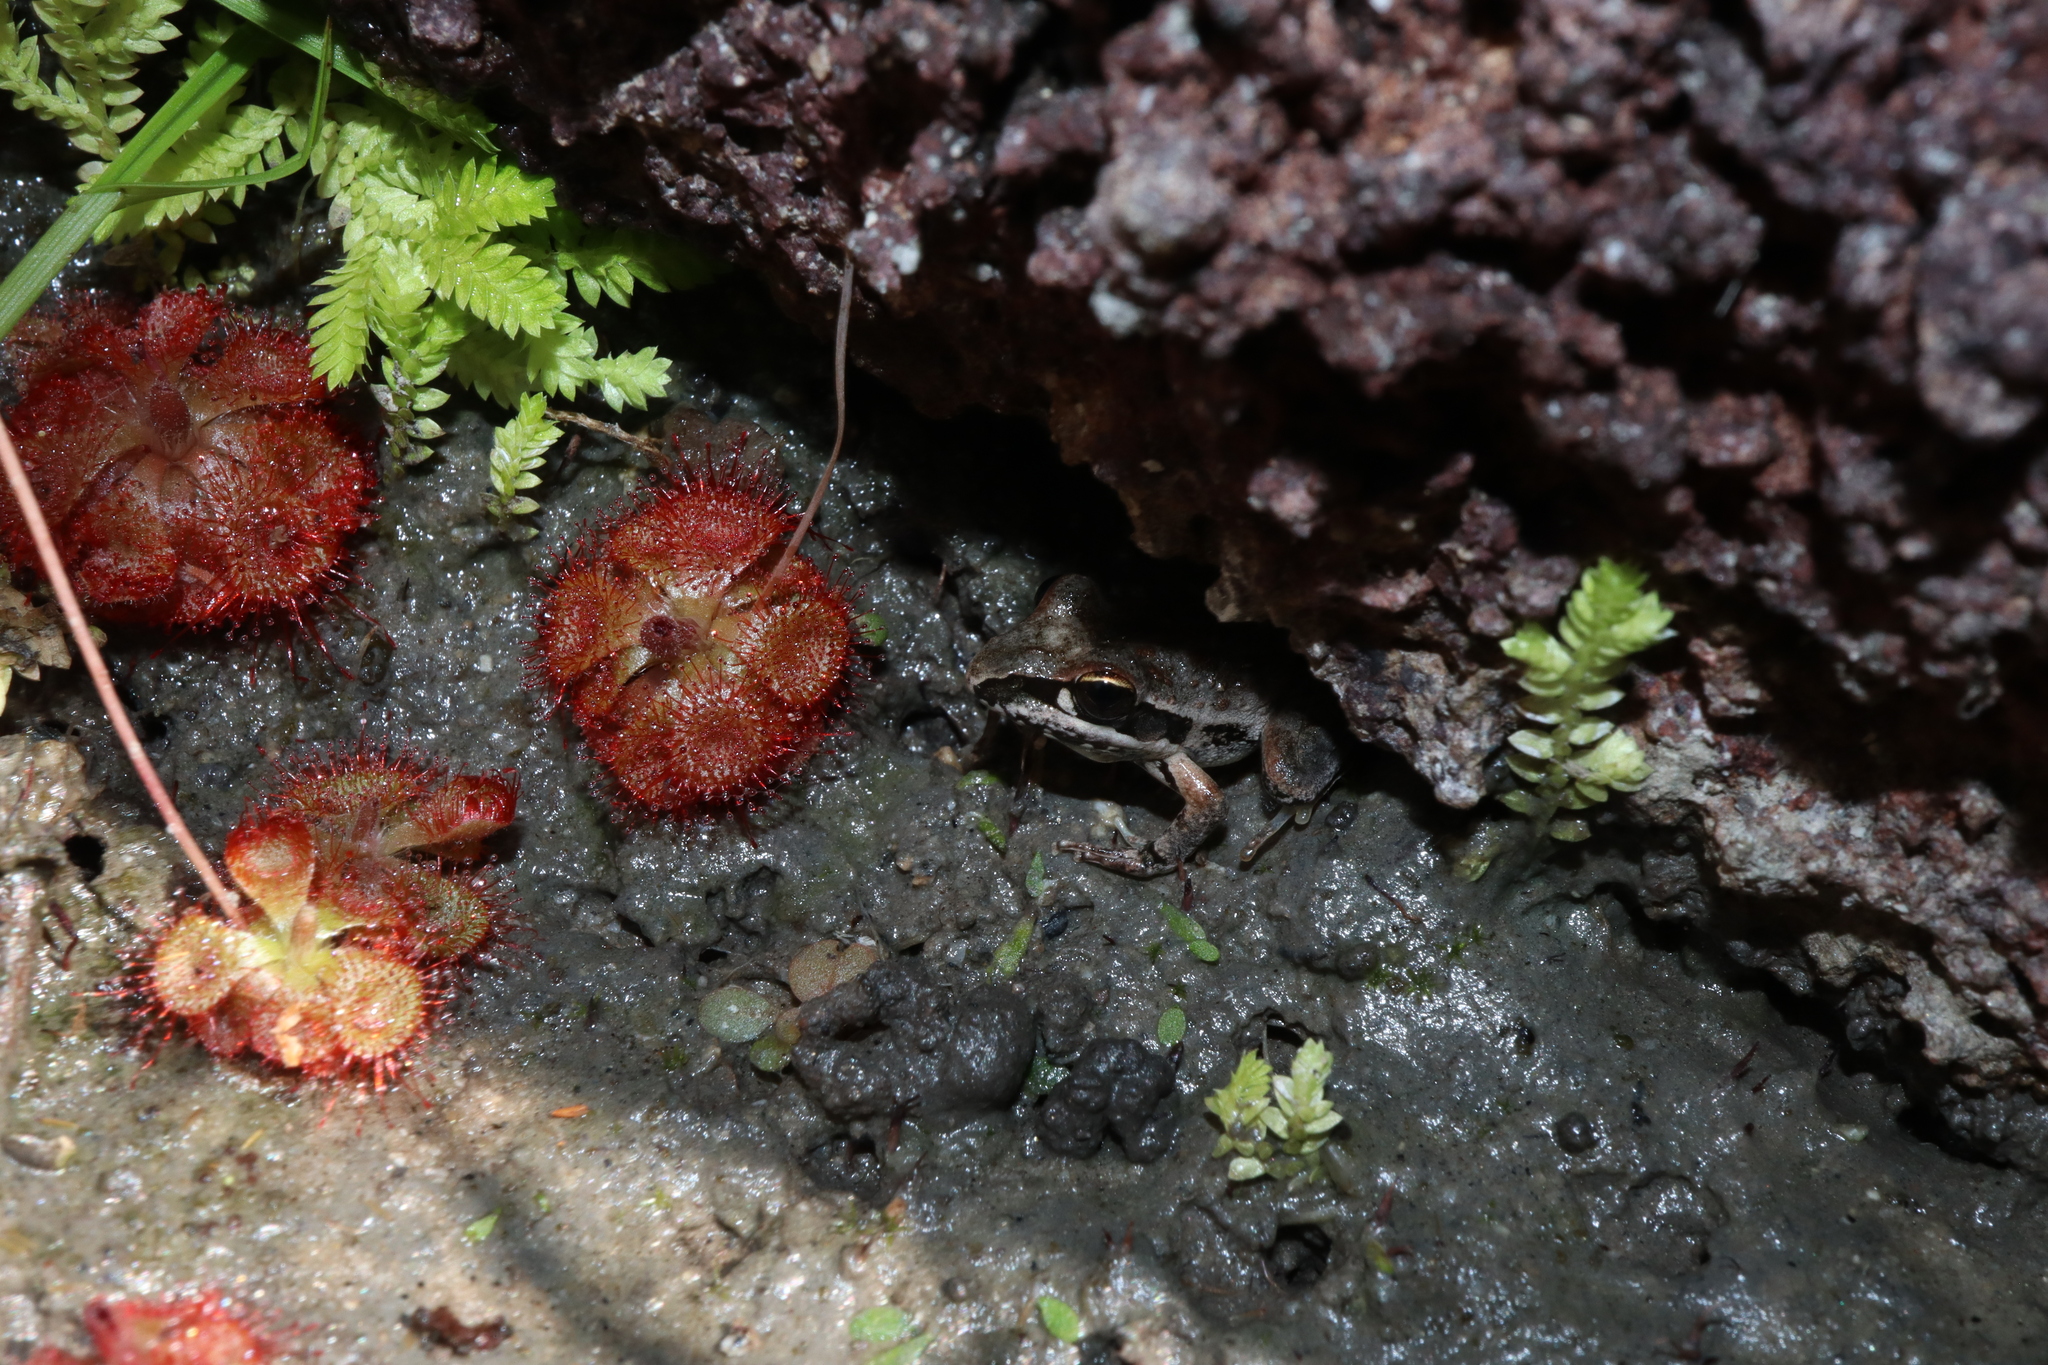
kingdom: Animalia
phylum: Chordata
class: Amphibia
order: Anura
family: Pelodryadidae
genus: Litoria
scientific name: Litoria latopalmata
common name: Broad-palmed rocket frog
